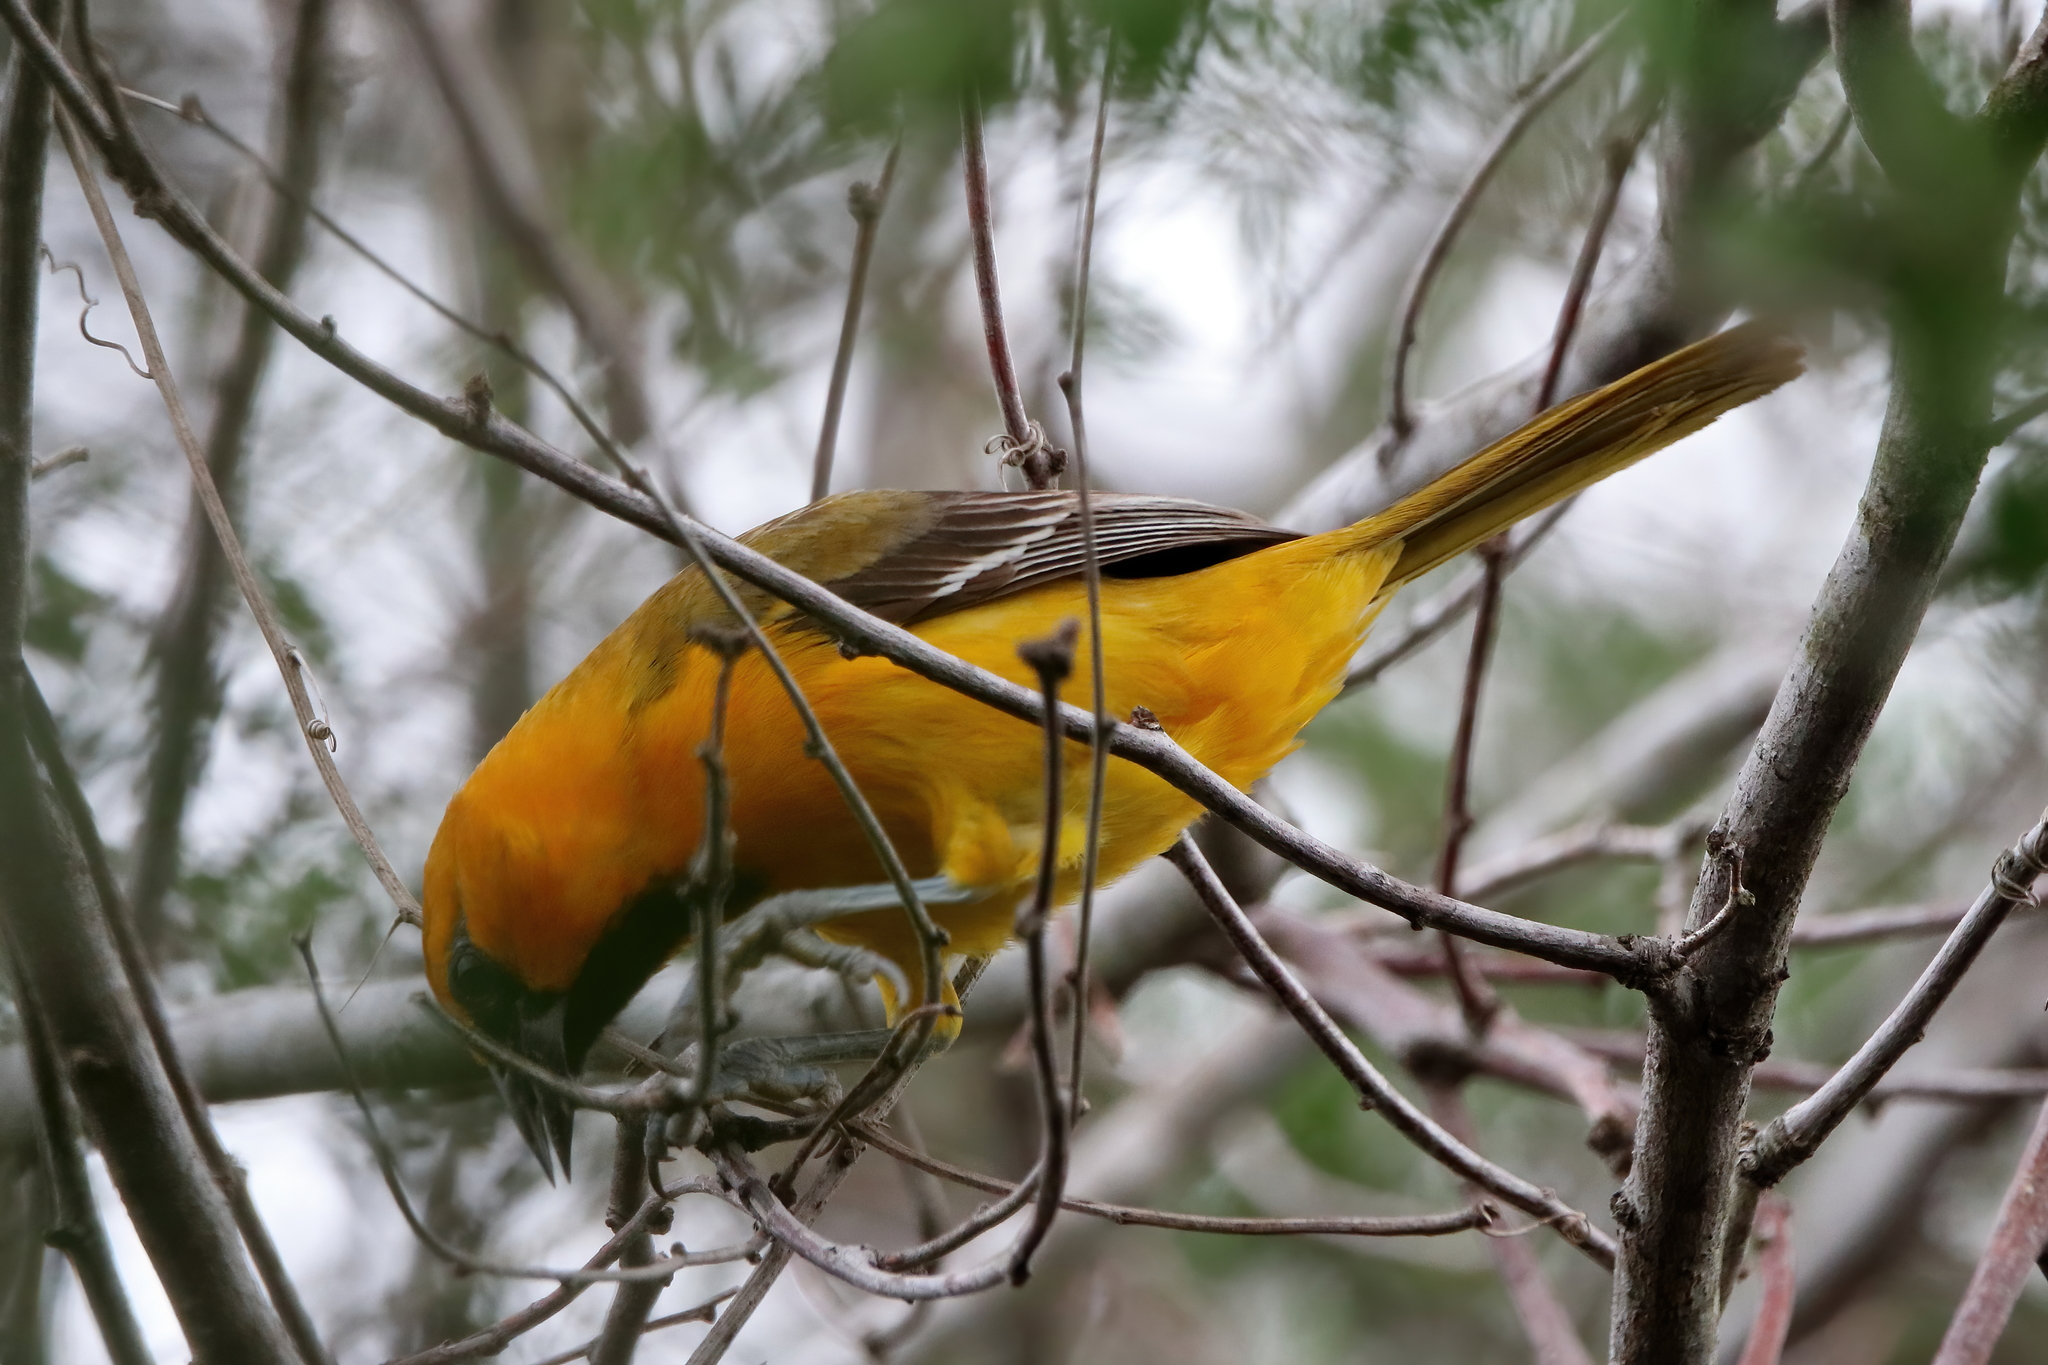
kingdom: Animalia
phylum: Chordata
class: Aves
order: Passeriformes
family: Icteridae
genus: Icterus
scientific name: Icterus gularis
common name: Altamira oriole
